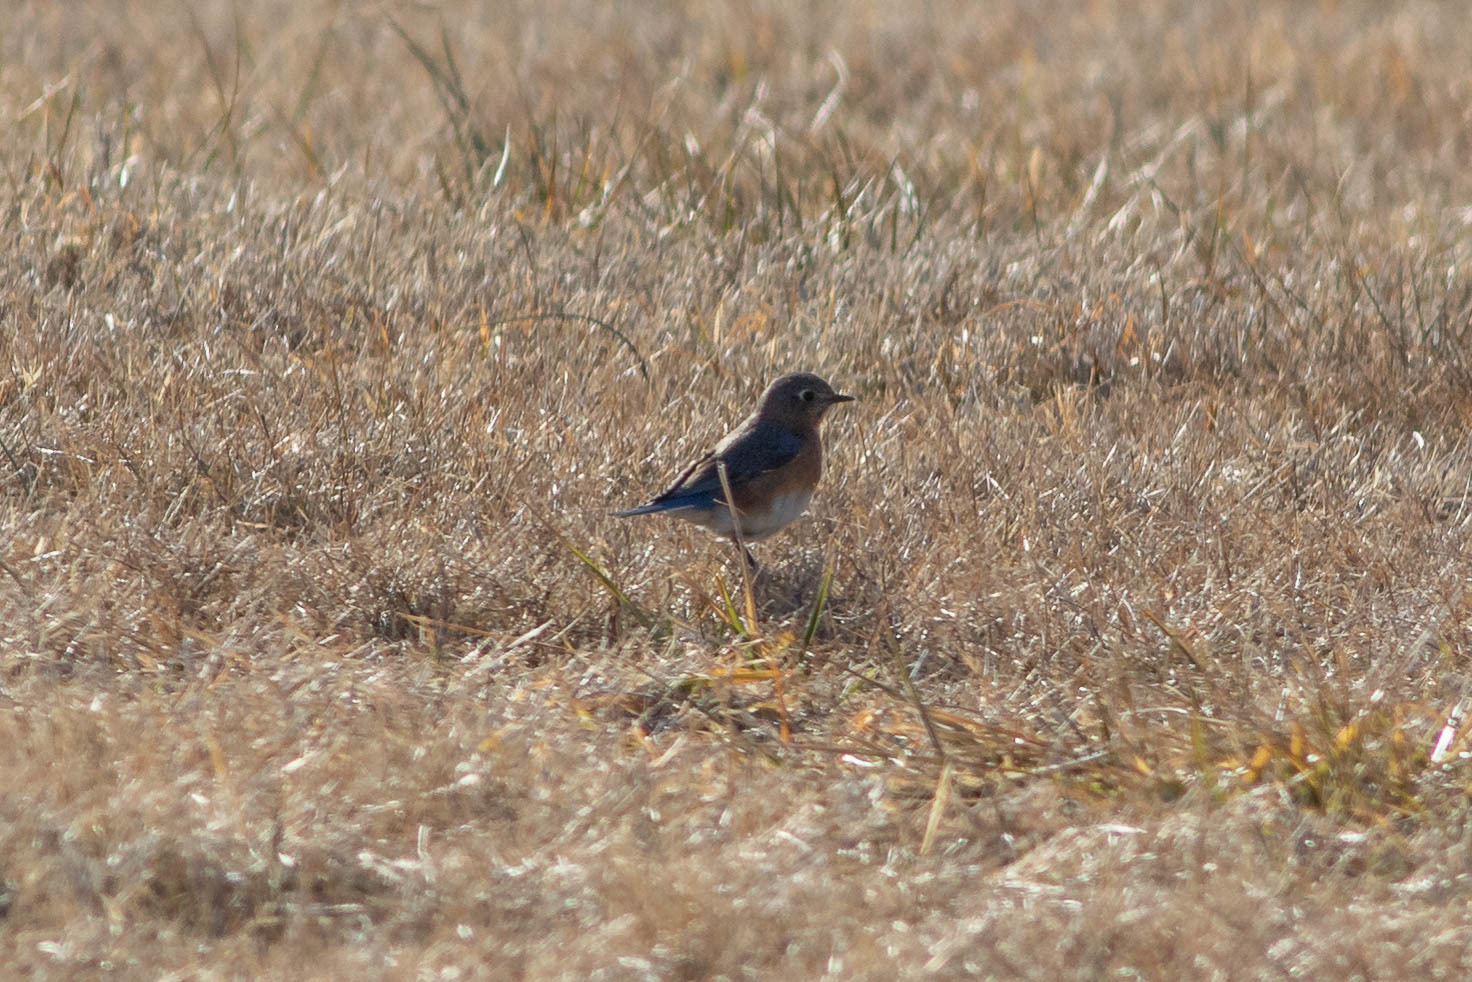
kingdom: Animalia
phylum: Chordata
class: Aves
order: Passeriformes
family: Turdidae
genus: Sialia
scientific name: Sialia sialis
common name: Eastern bluebird
